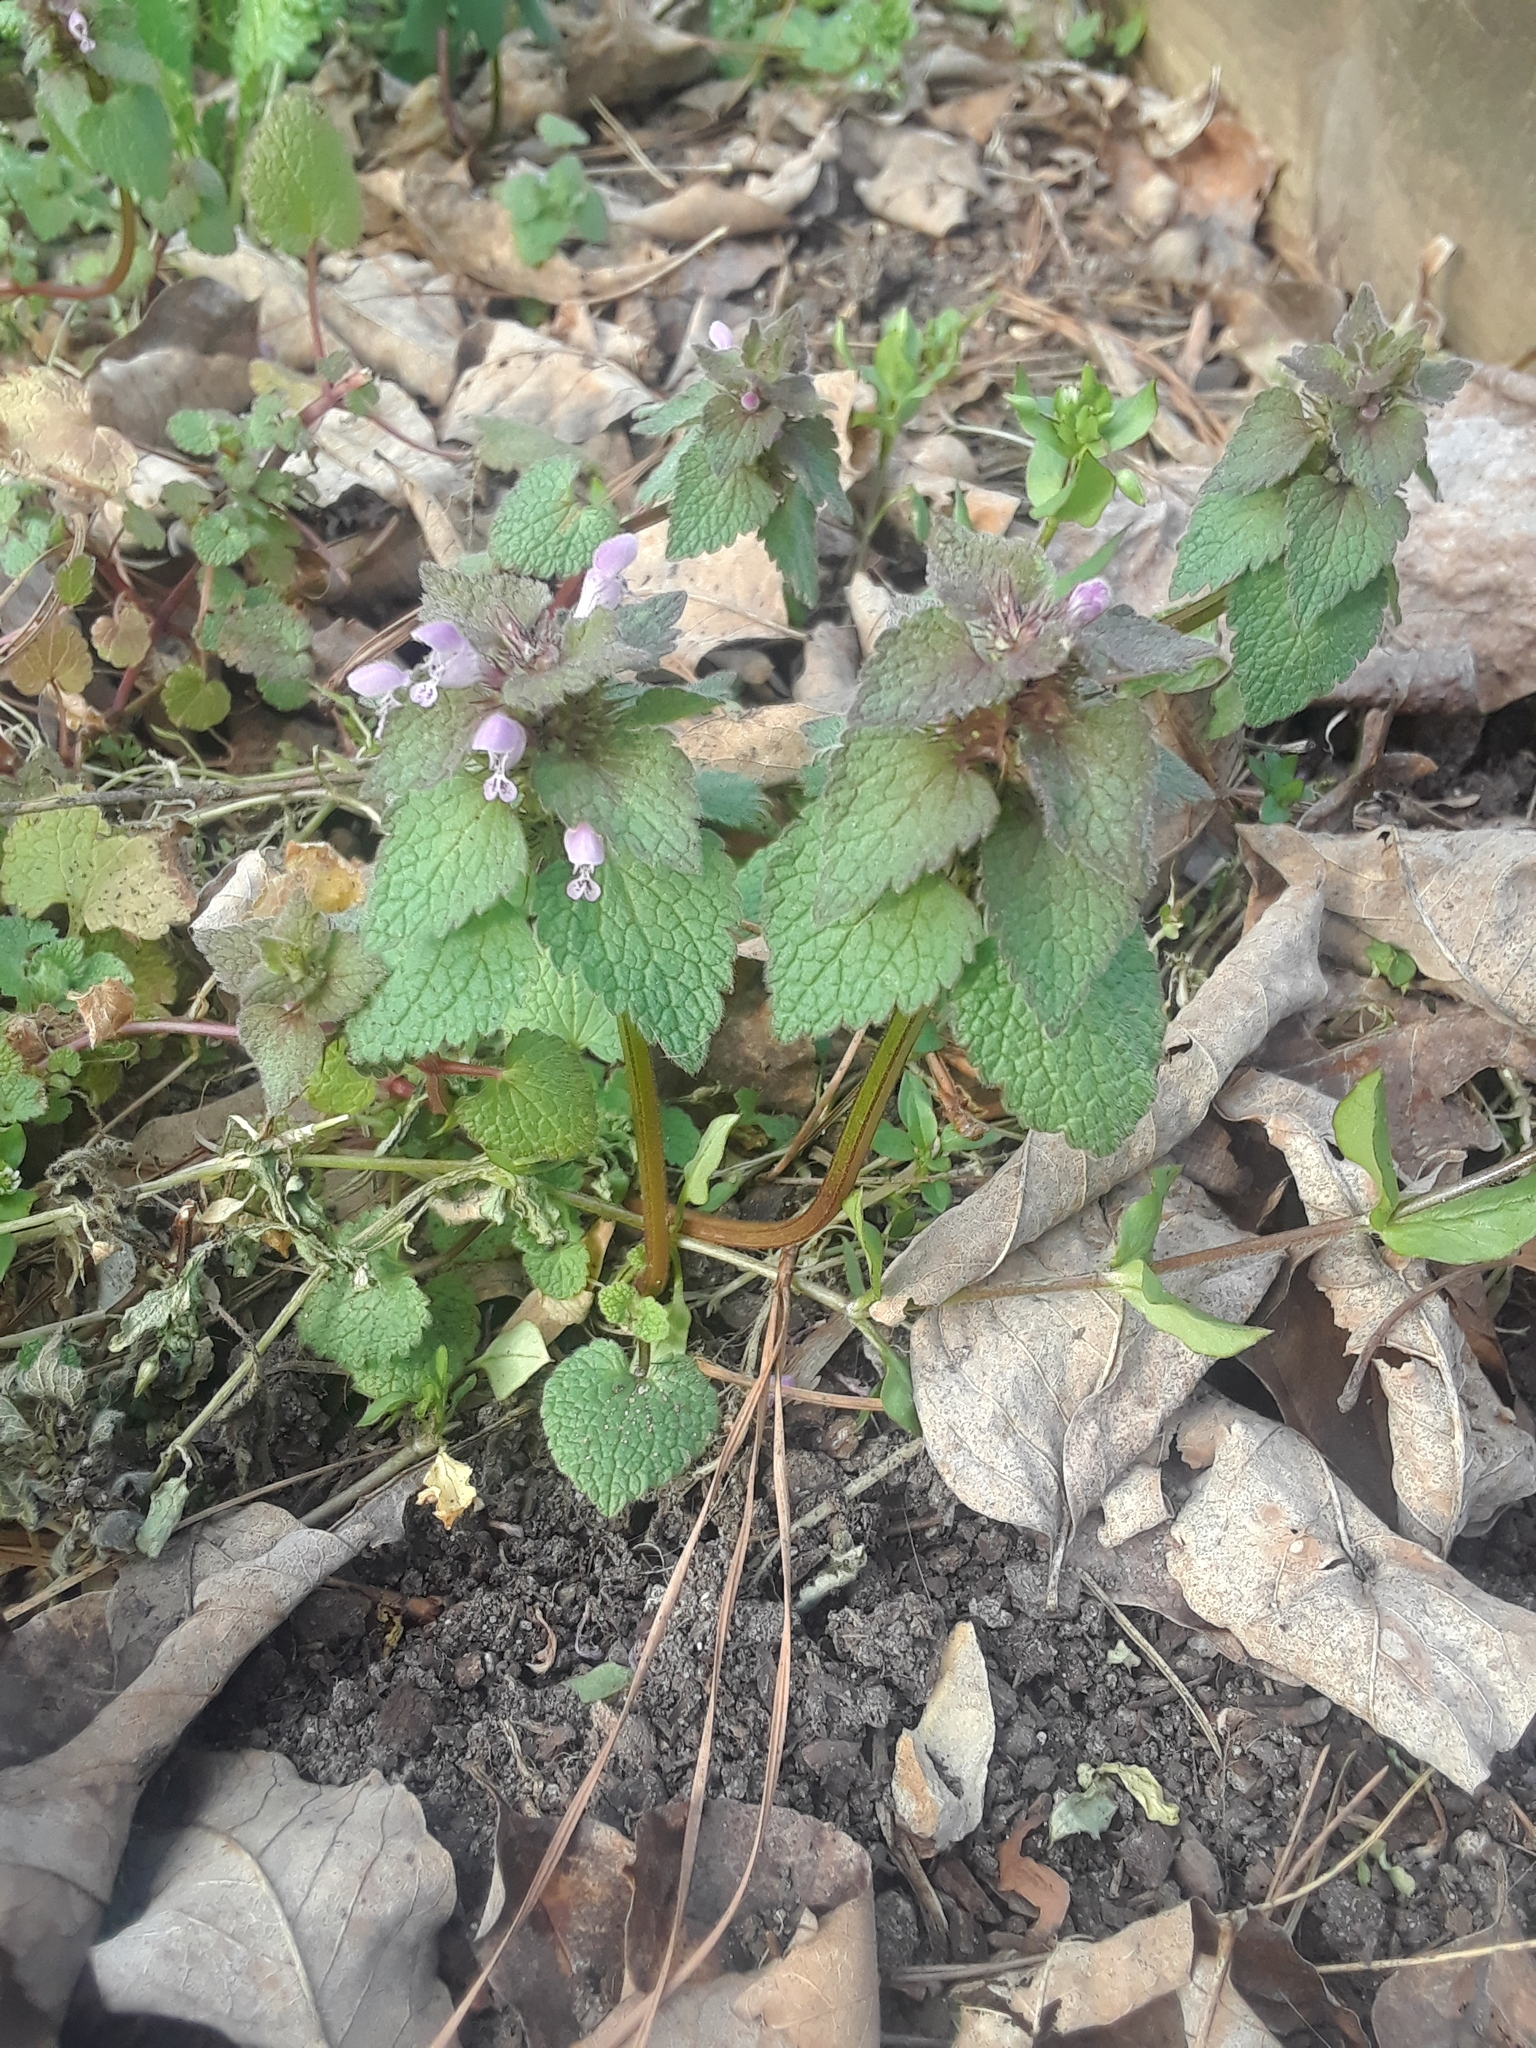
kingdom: Plantae
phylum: Tracheophyta
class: Magnoliopsida
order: Lamiales
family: Lamiaceae
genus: Lamium
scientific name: Lamium purpureum
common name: Red dead-nettle
